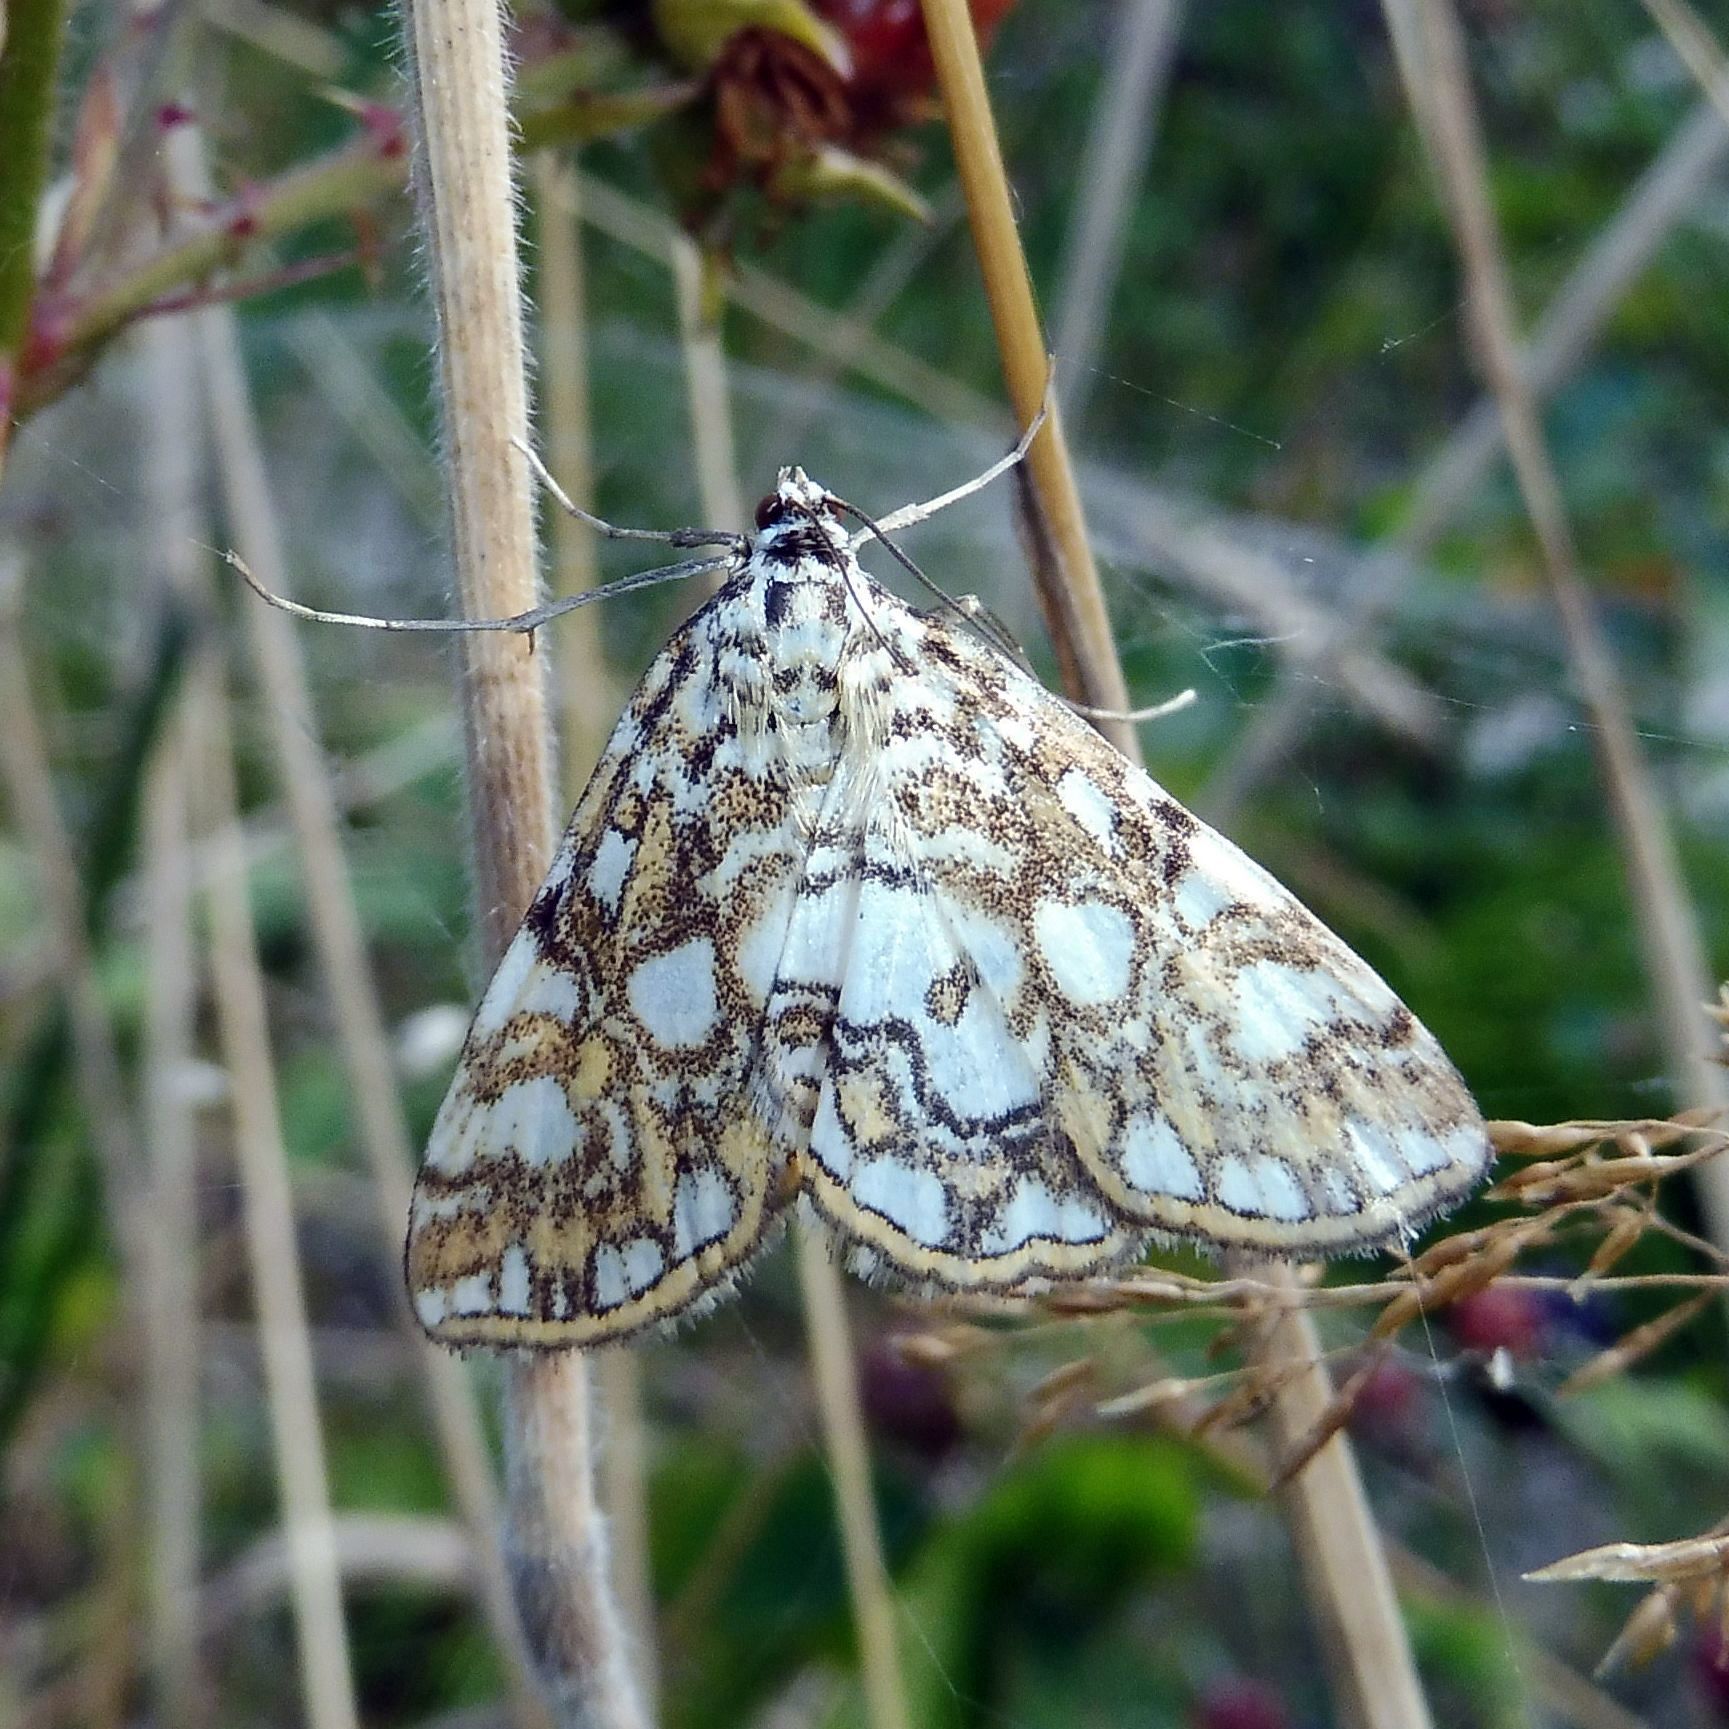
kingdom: Animalia
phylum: Arthropoda
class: Insecta
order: Lepidoptera
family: Crambidae
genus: Elophila
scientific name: Elophila nymphaeata
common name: Brown china-mark
